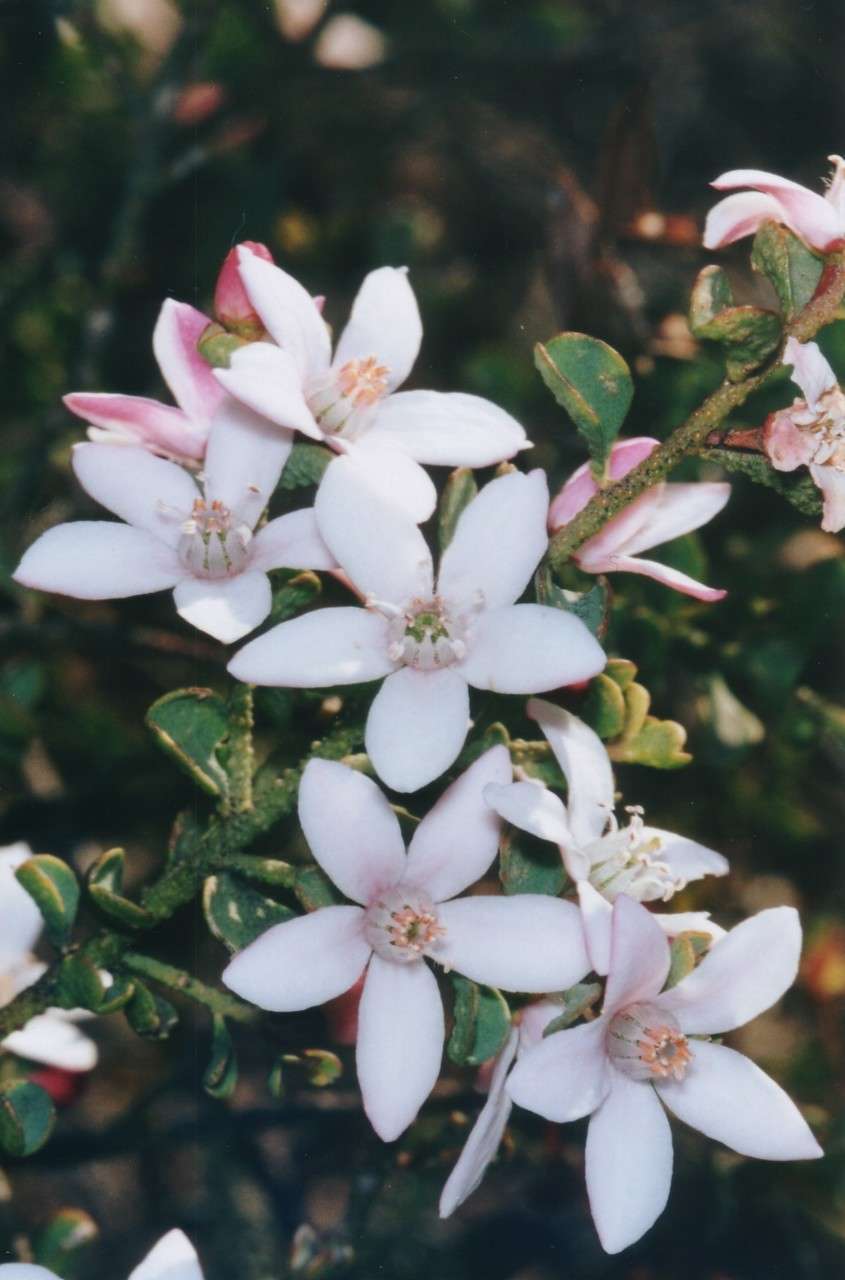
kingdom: Plantae
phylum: Tracheophyta
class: Magnoliopsida
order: Sapindales
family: Rutaceae
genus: Philotheca
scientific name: Philotheca verrucosa
